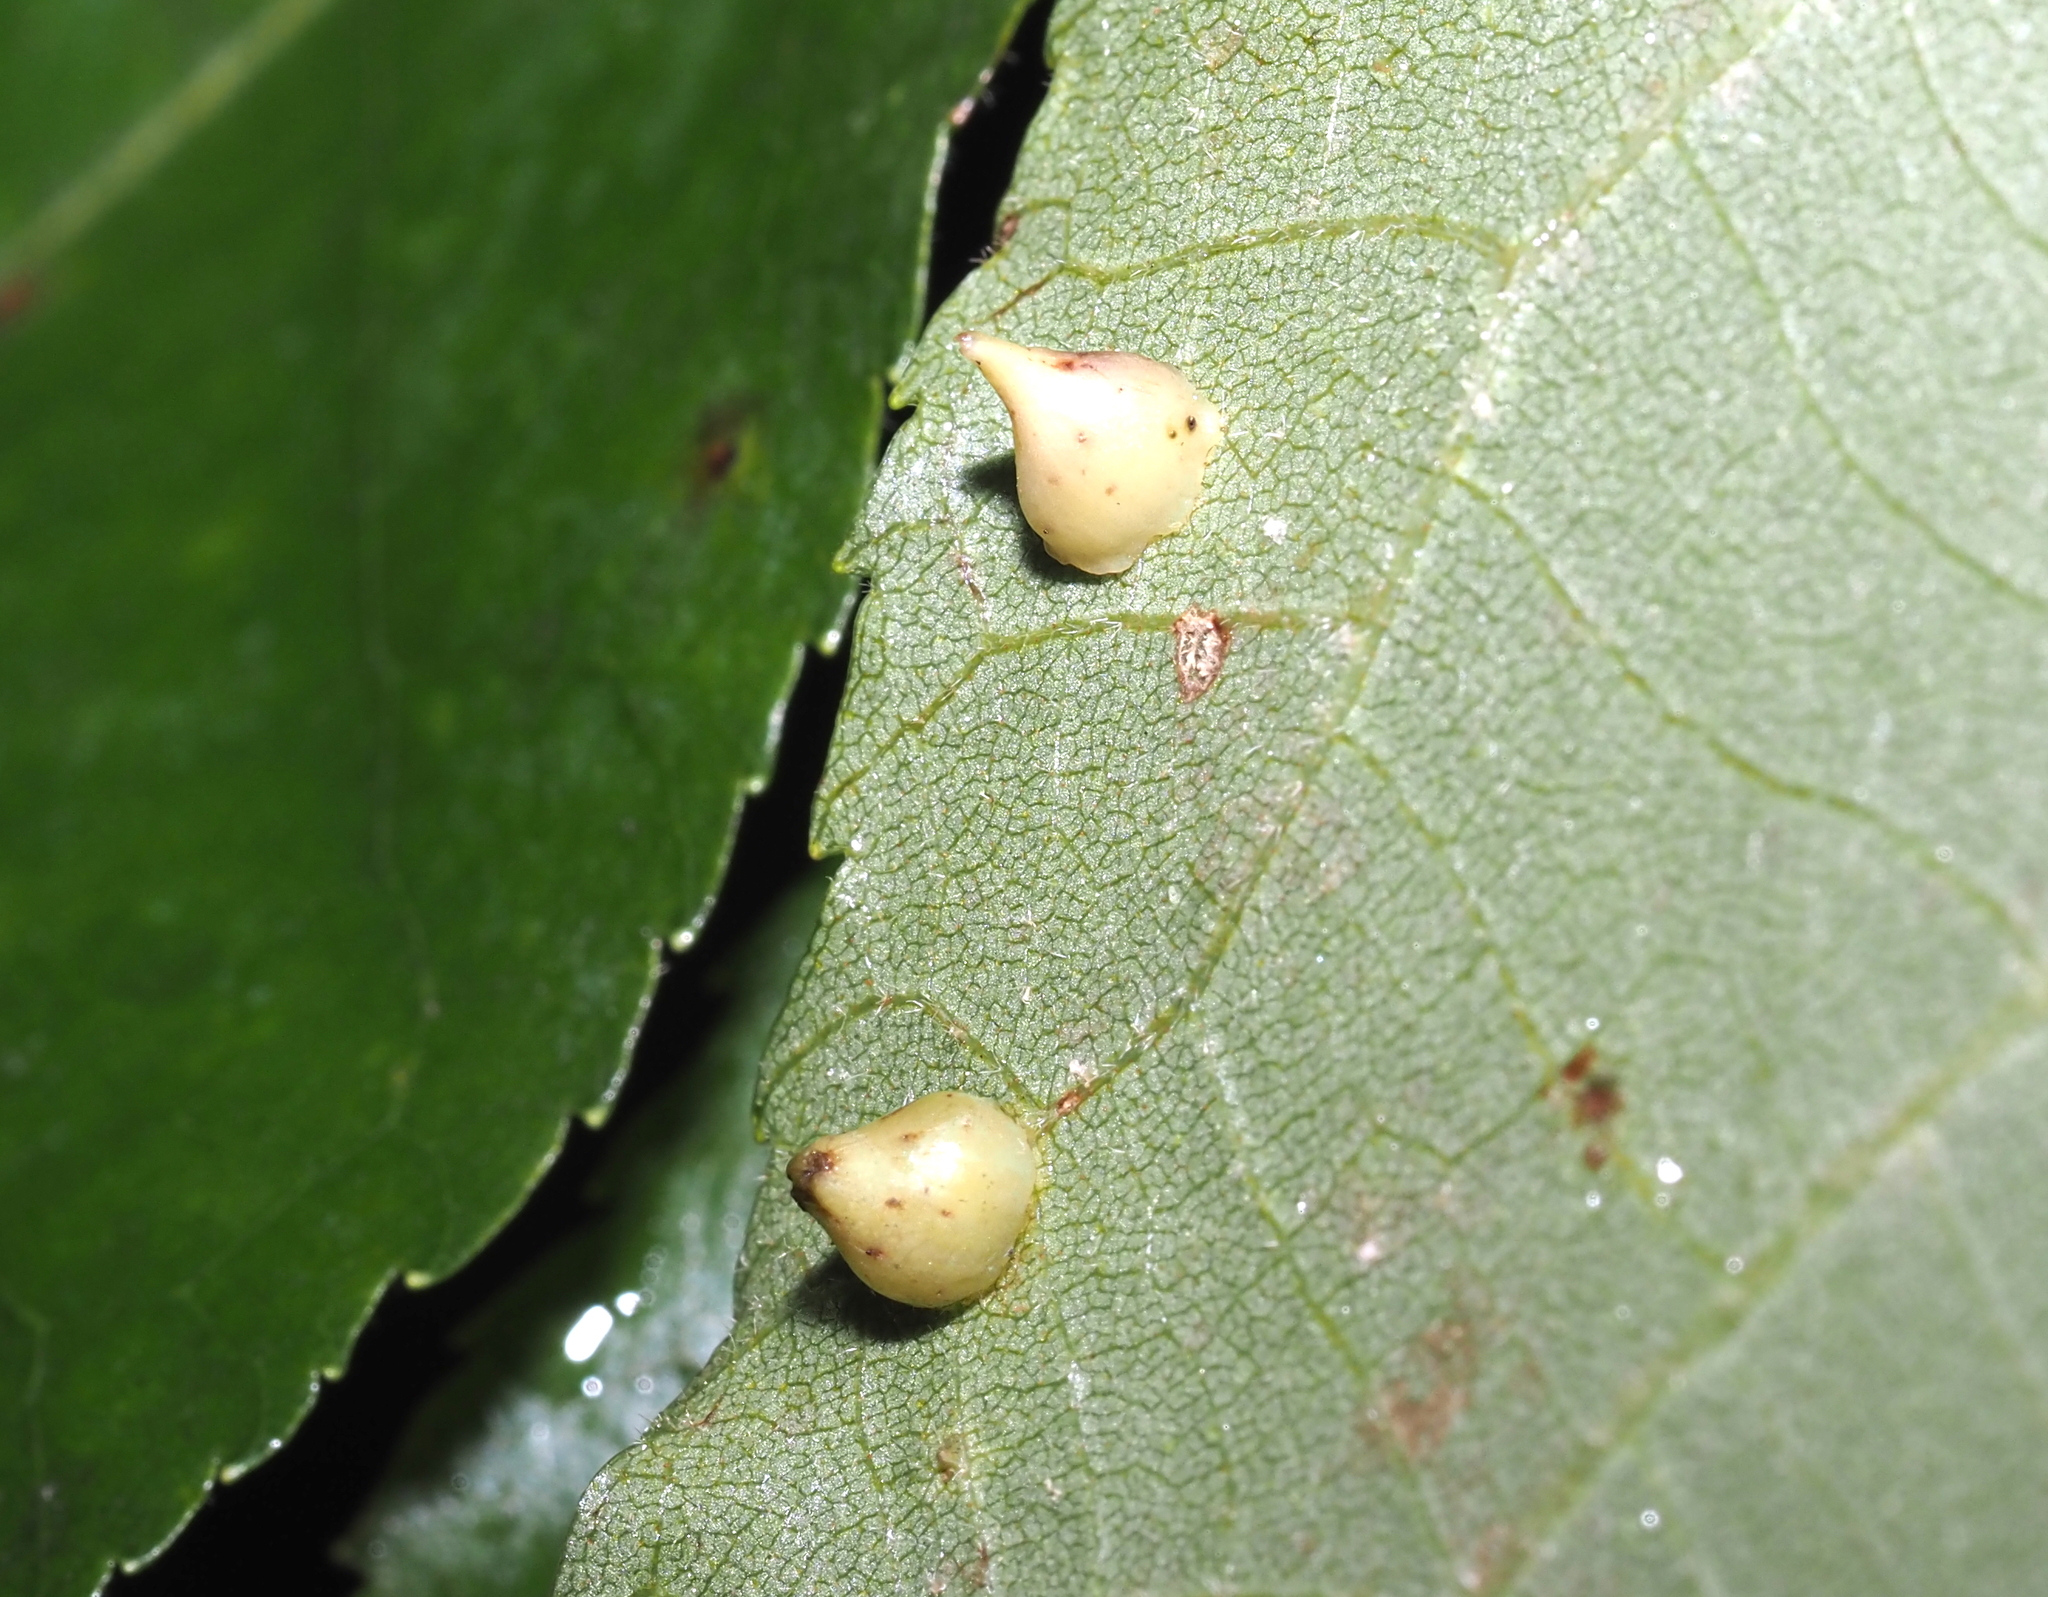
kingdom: Animalia
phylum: Arthropoda
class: Insecta
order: Diptera
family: Cecidomyiidae
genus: Caryomyia
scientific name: Caryomyia sanguinolenta
